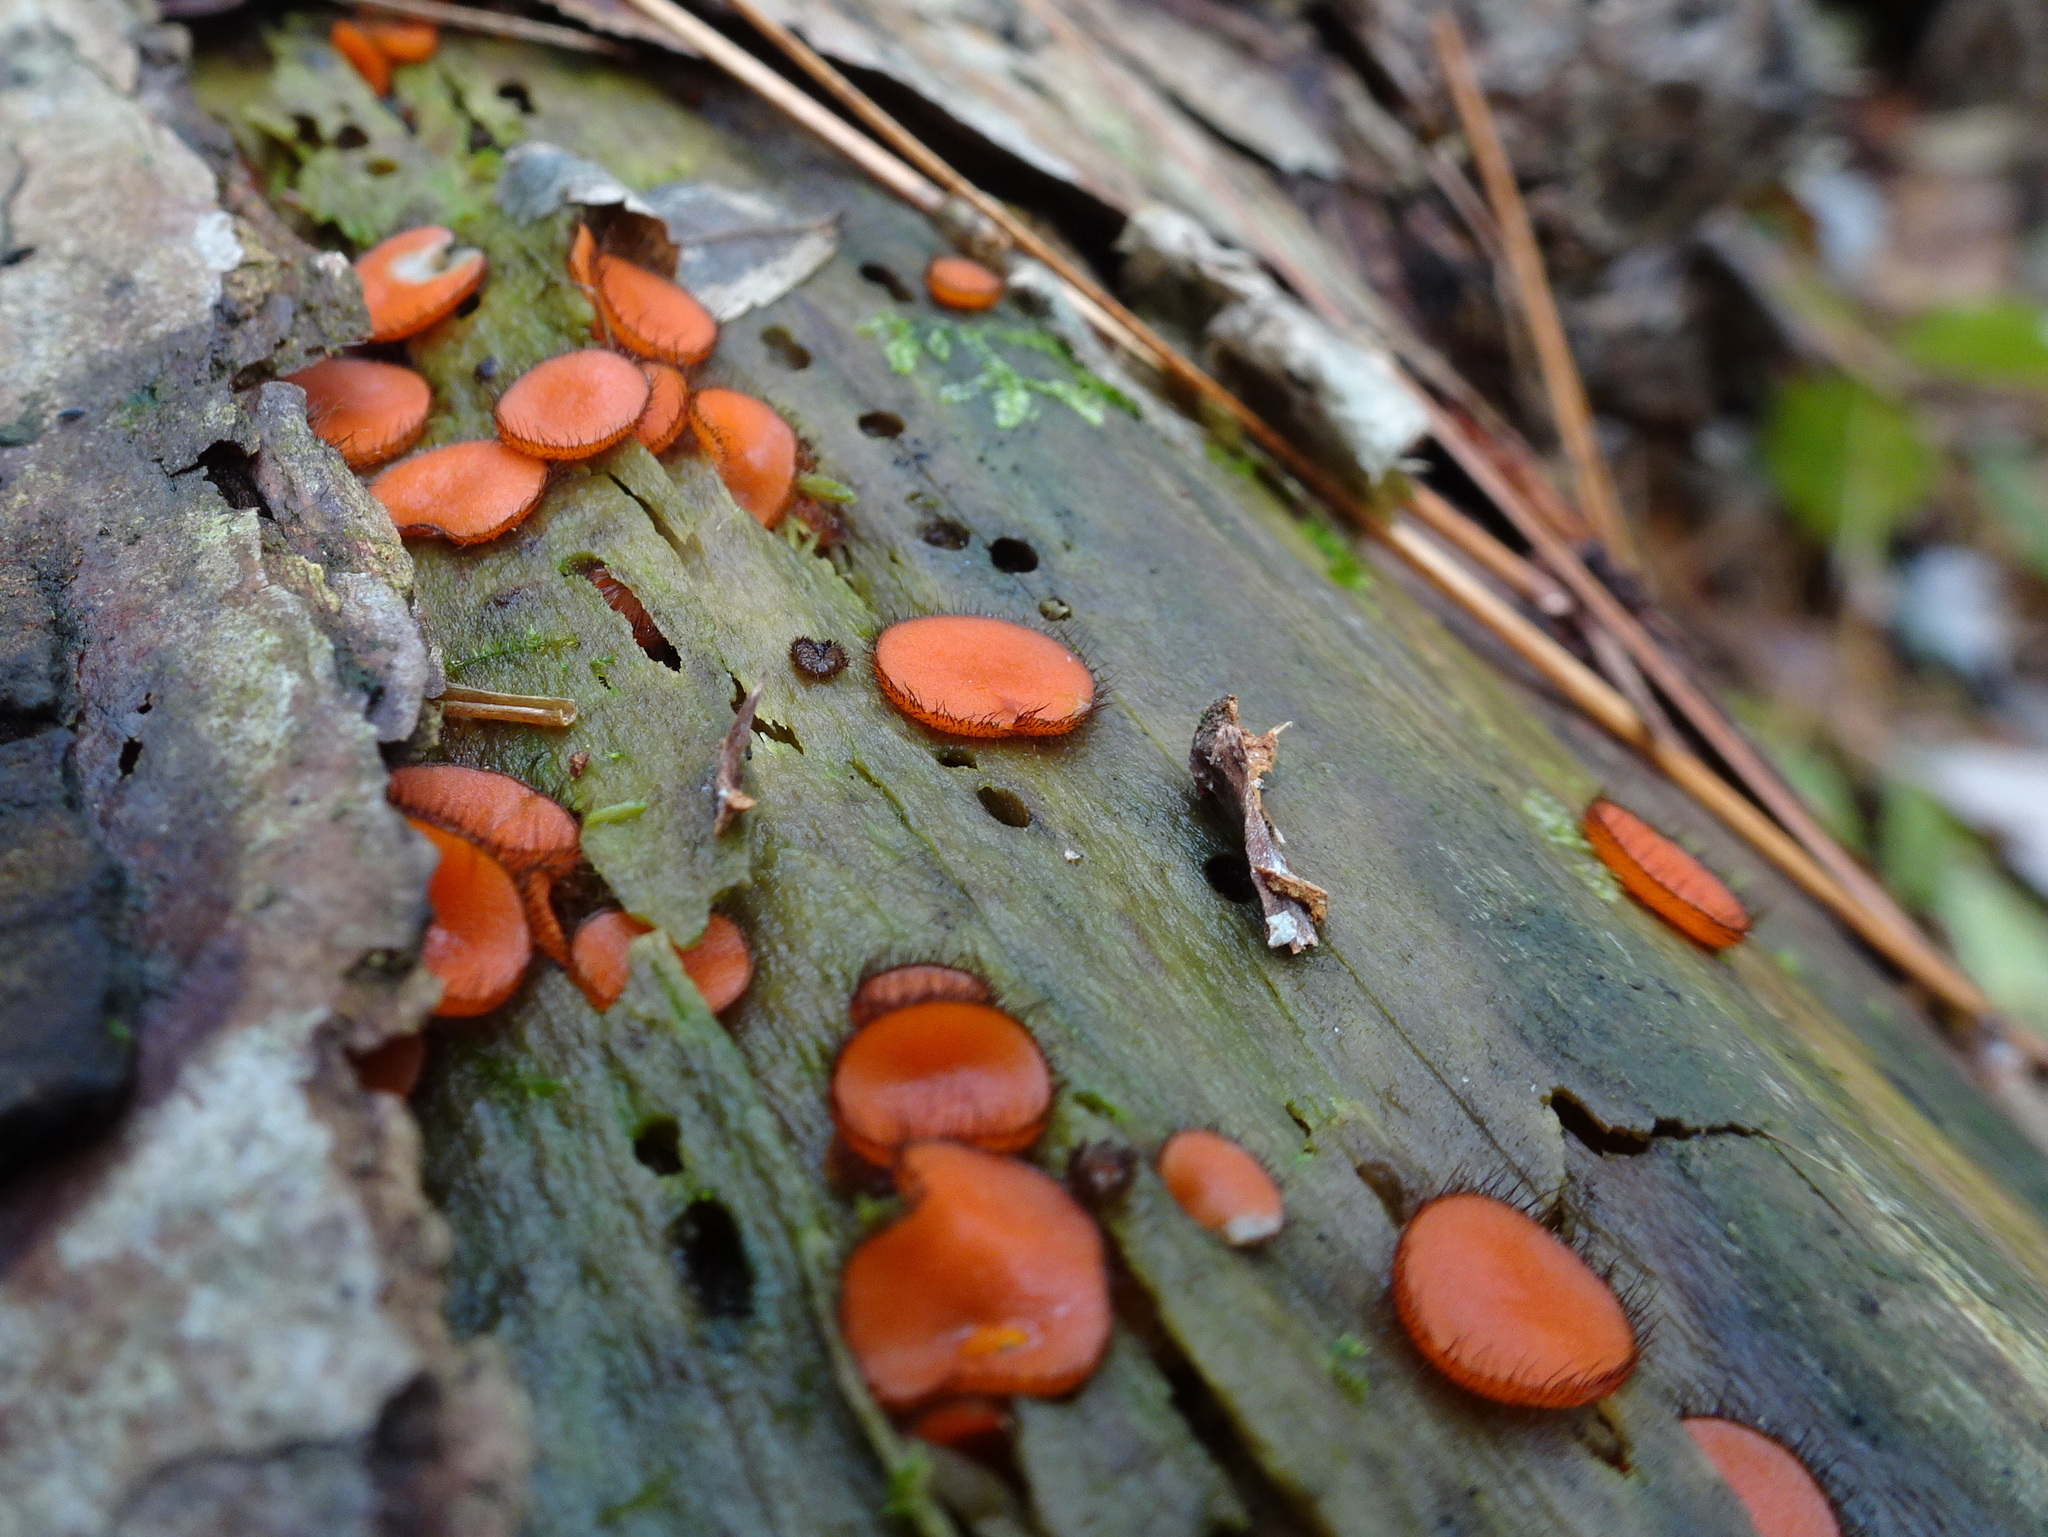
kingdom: Fungi
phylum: Ascomycota
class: Pezizomycetes
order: Pezizales
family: Pyronemataceae
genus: Scutellinia
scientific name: Scutellinia
